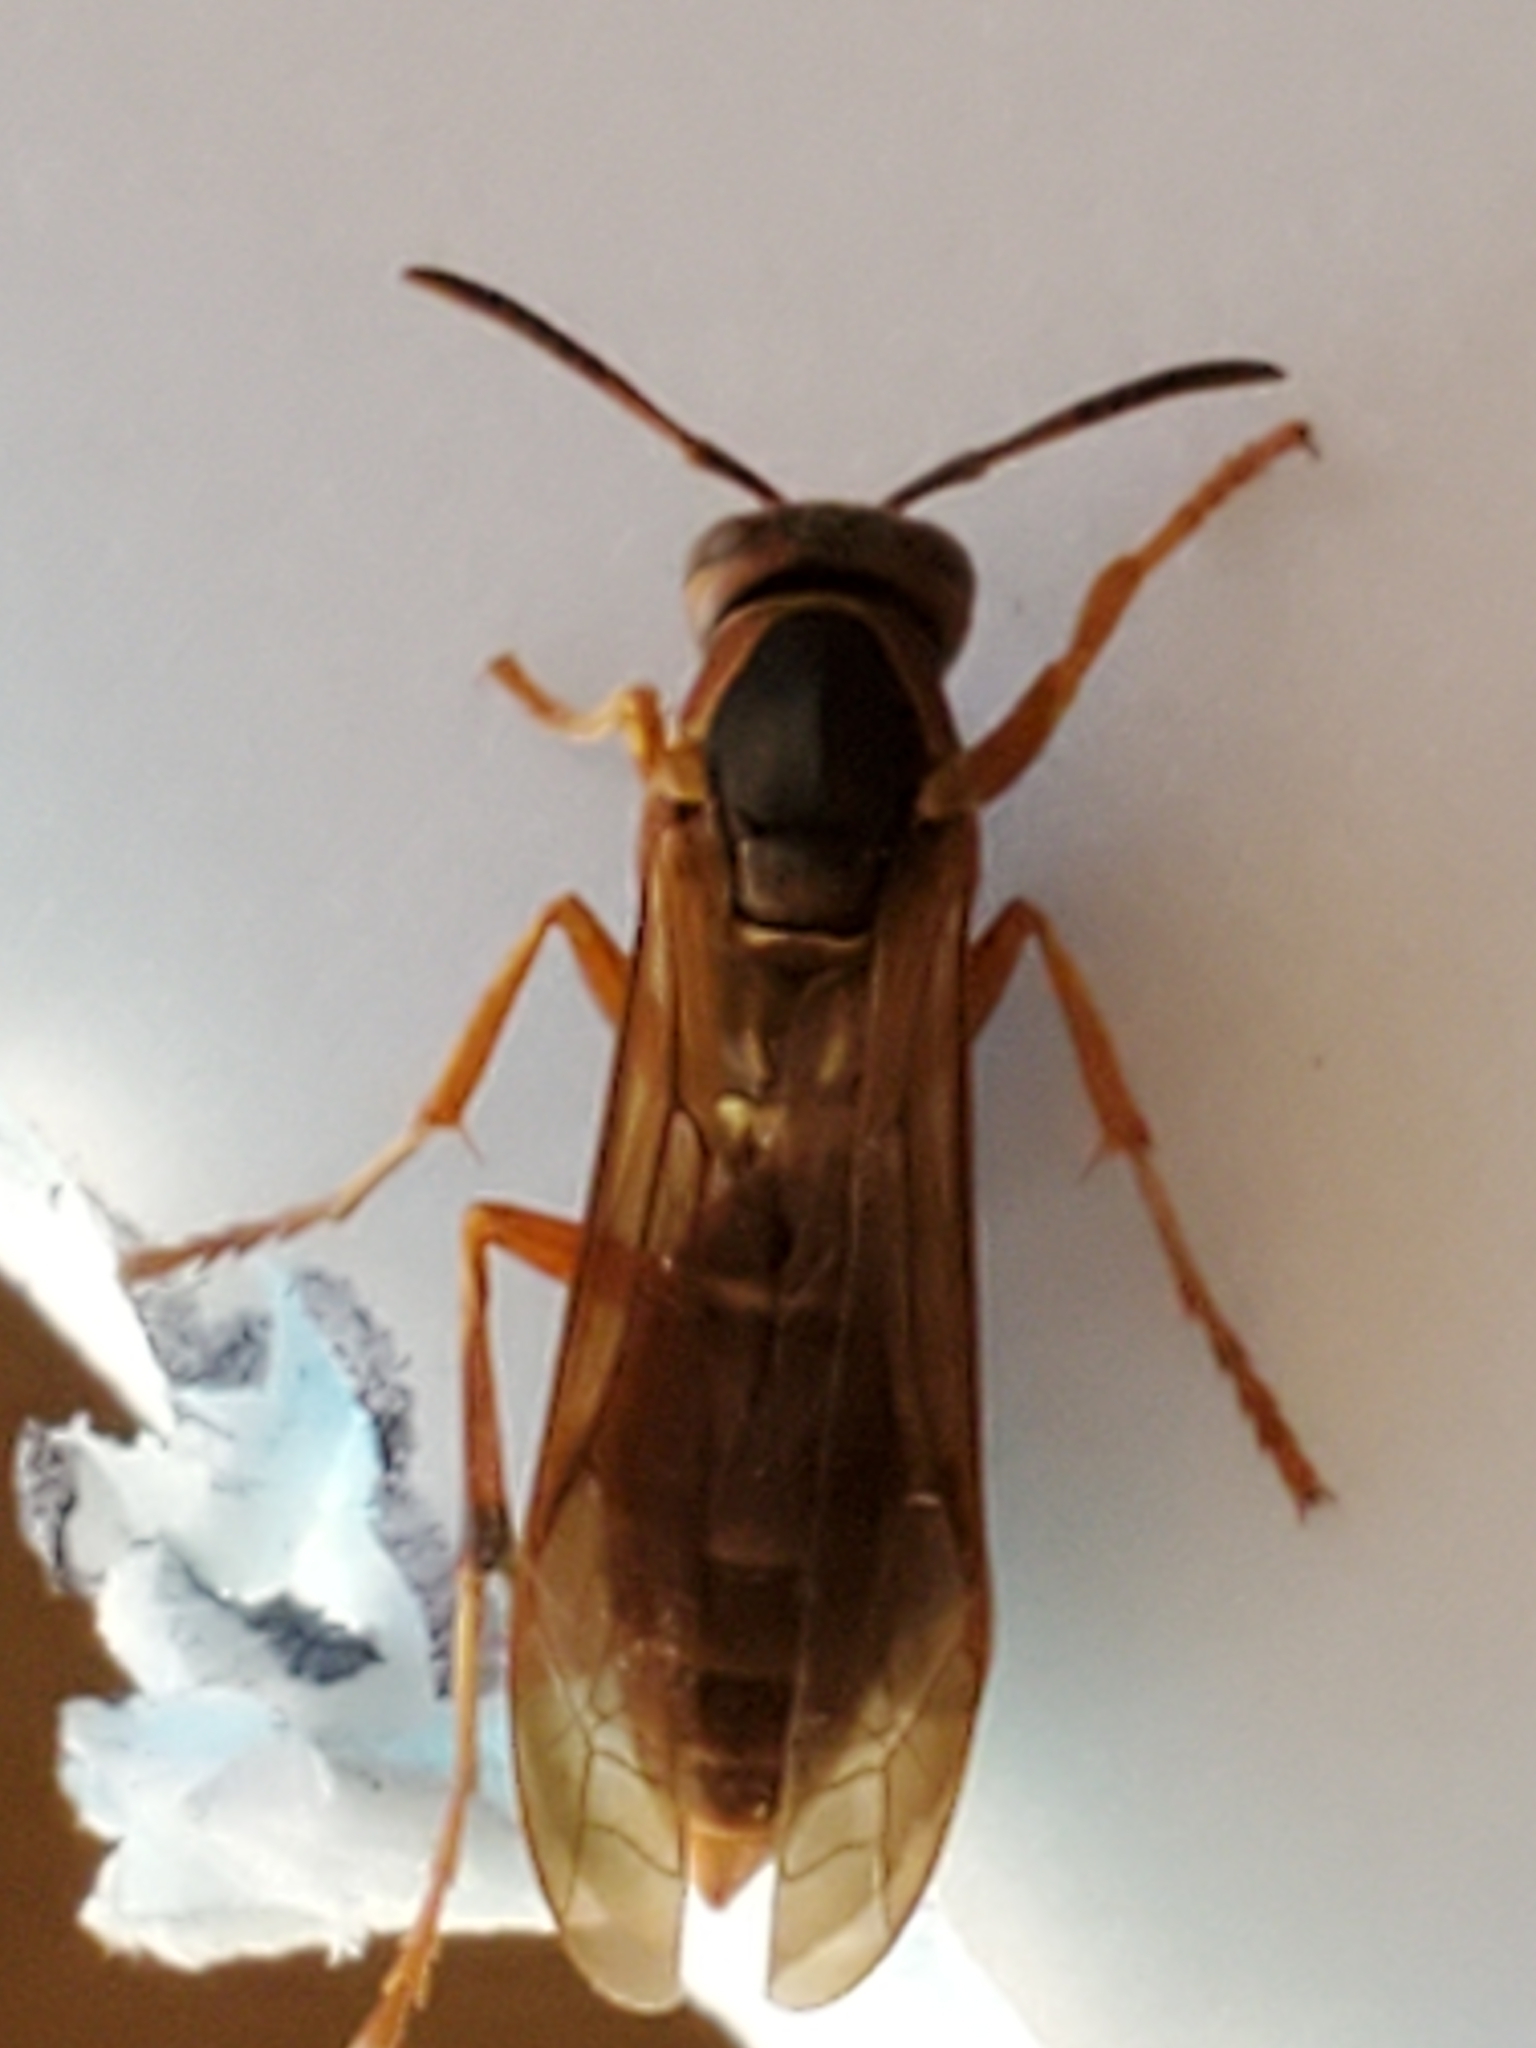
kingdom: Animalia
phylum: Arthropoda
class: Insecta
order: Hymenoptera
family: Eumenidae
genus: Polistes
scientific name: Polistes carolina
